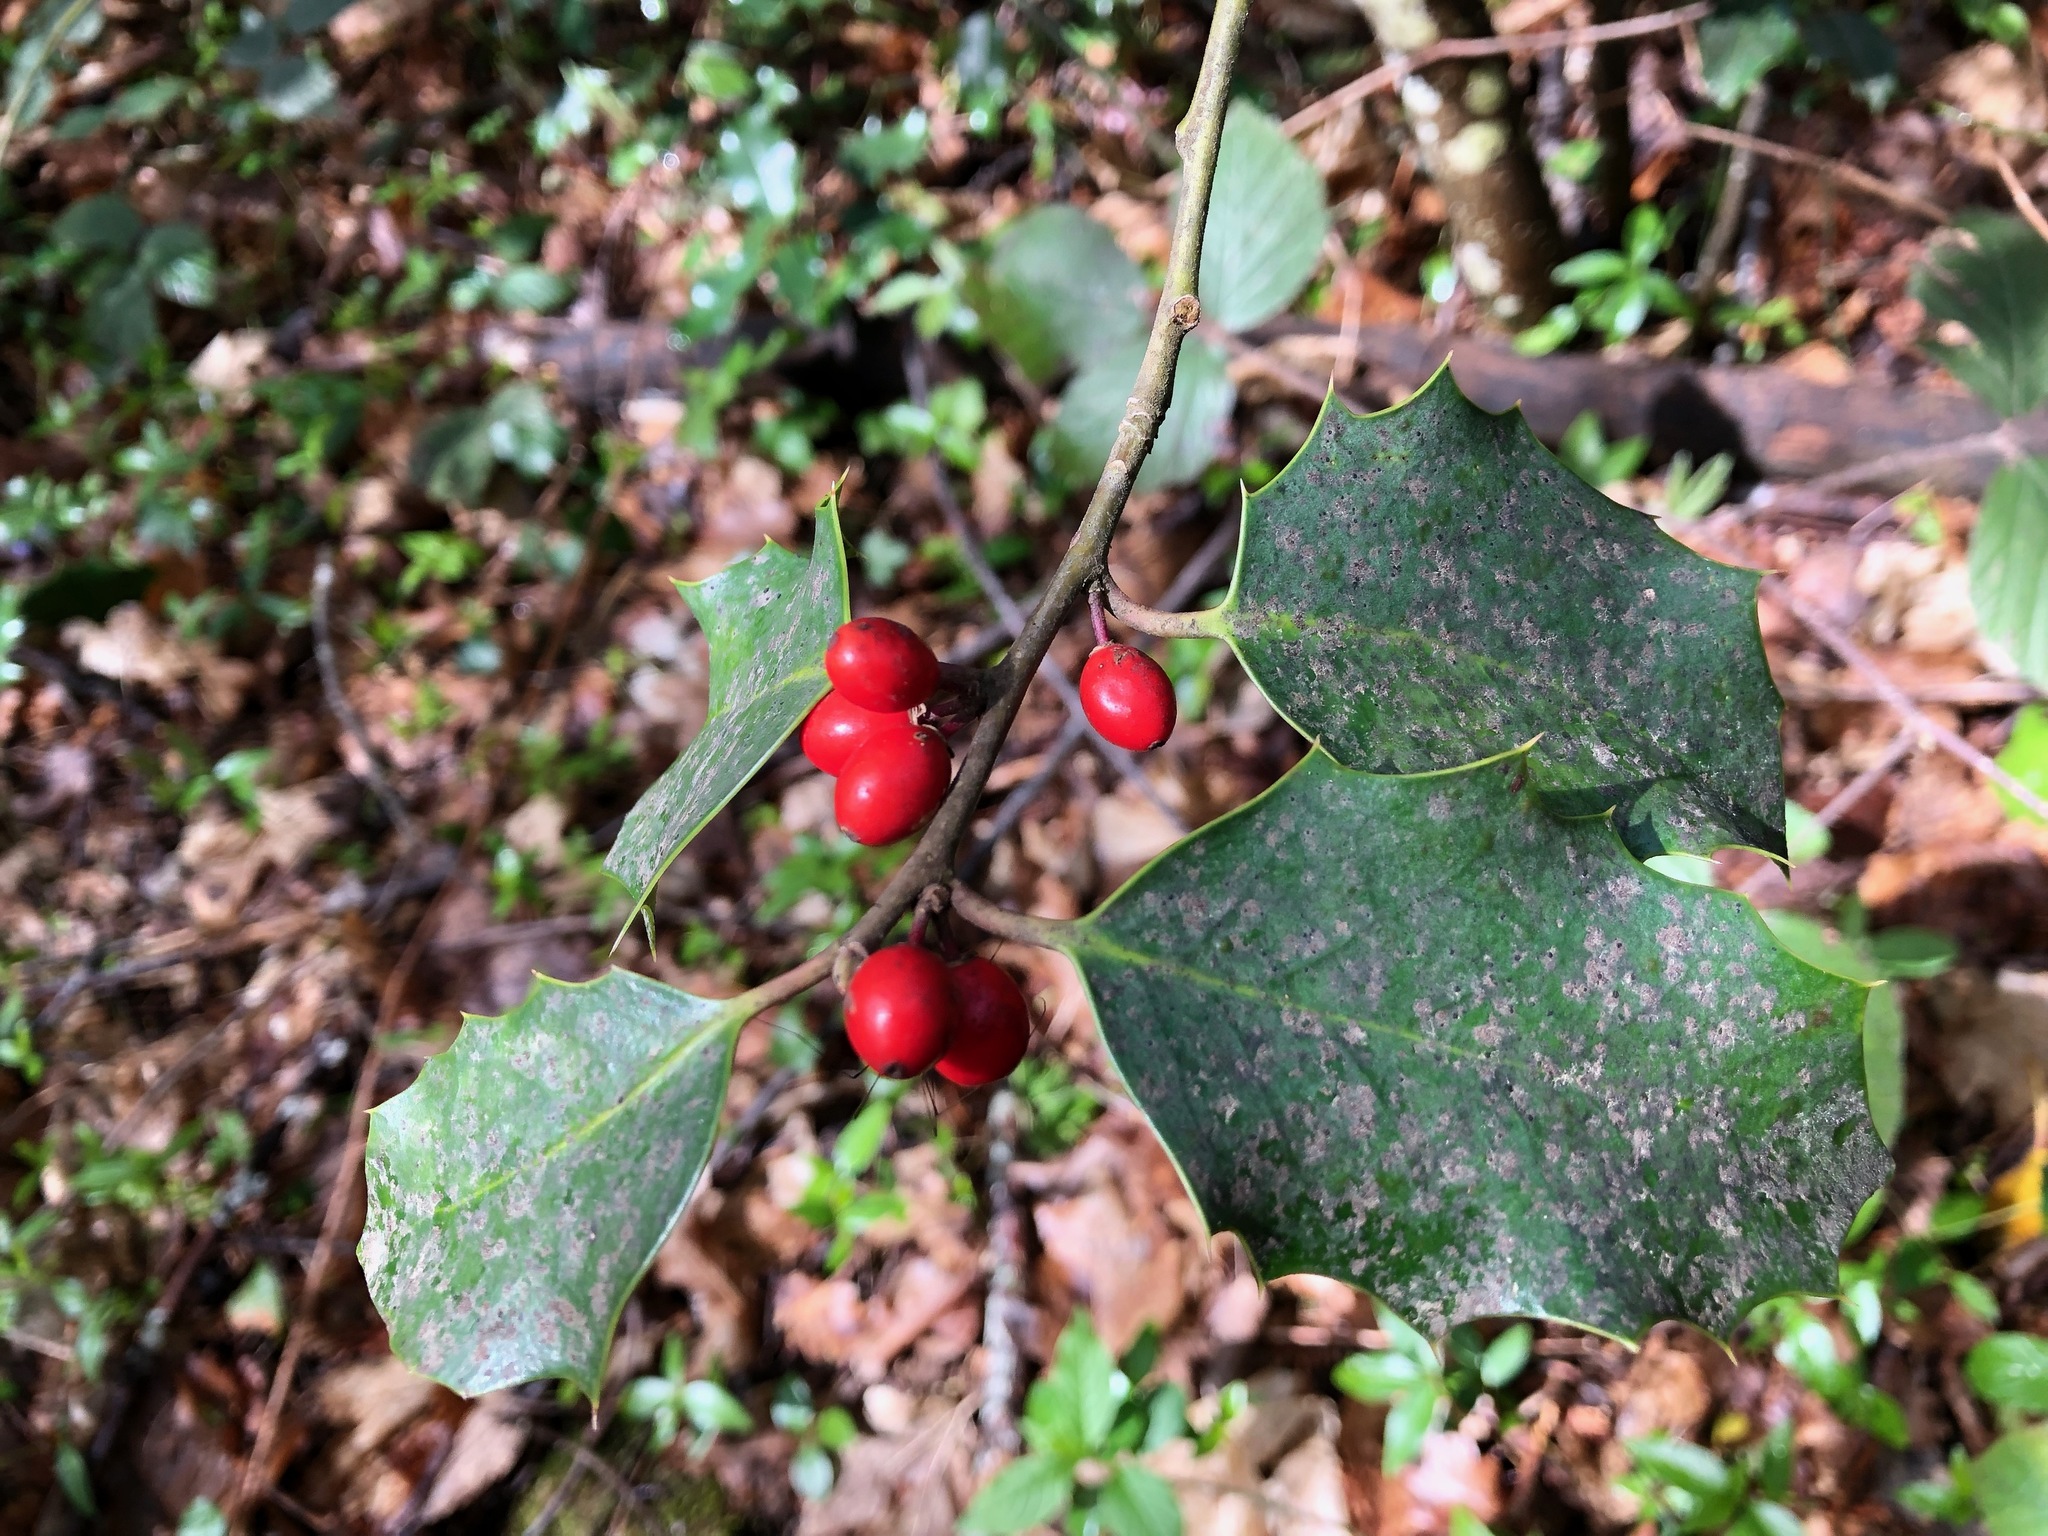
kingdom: Plantae
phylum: Tracheophyta
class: Magnoliopsida
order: Aquifoliales
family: Aquifoliaceae
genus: Ilex
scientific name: Ilex aquifolium
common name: English holly
